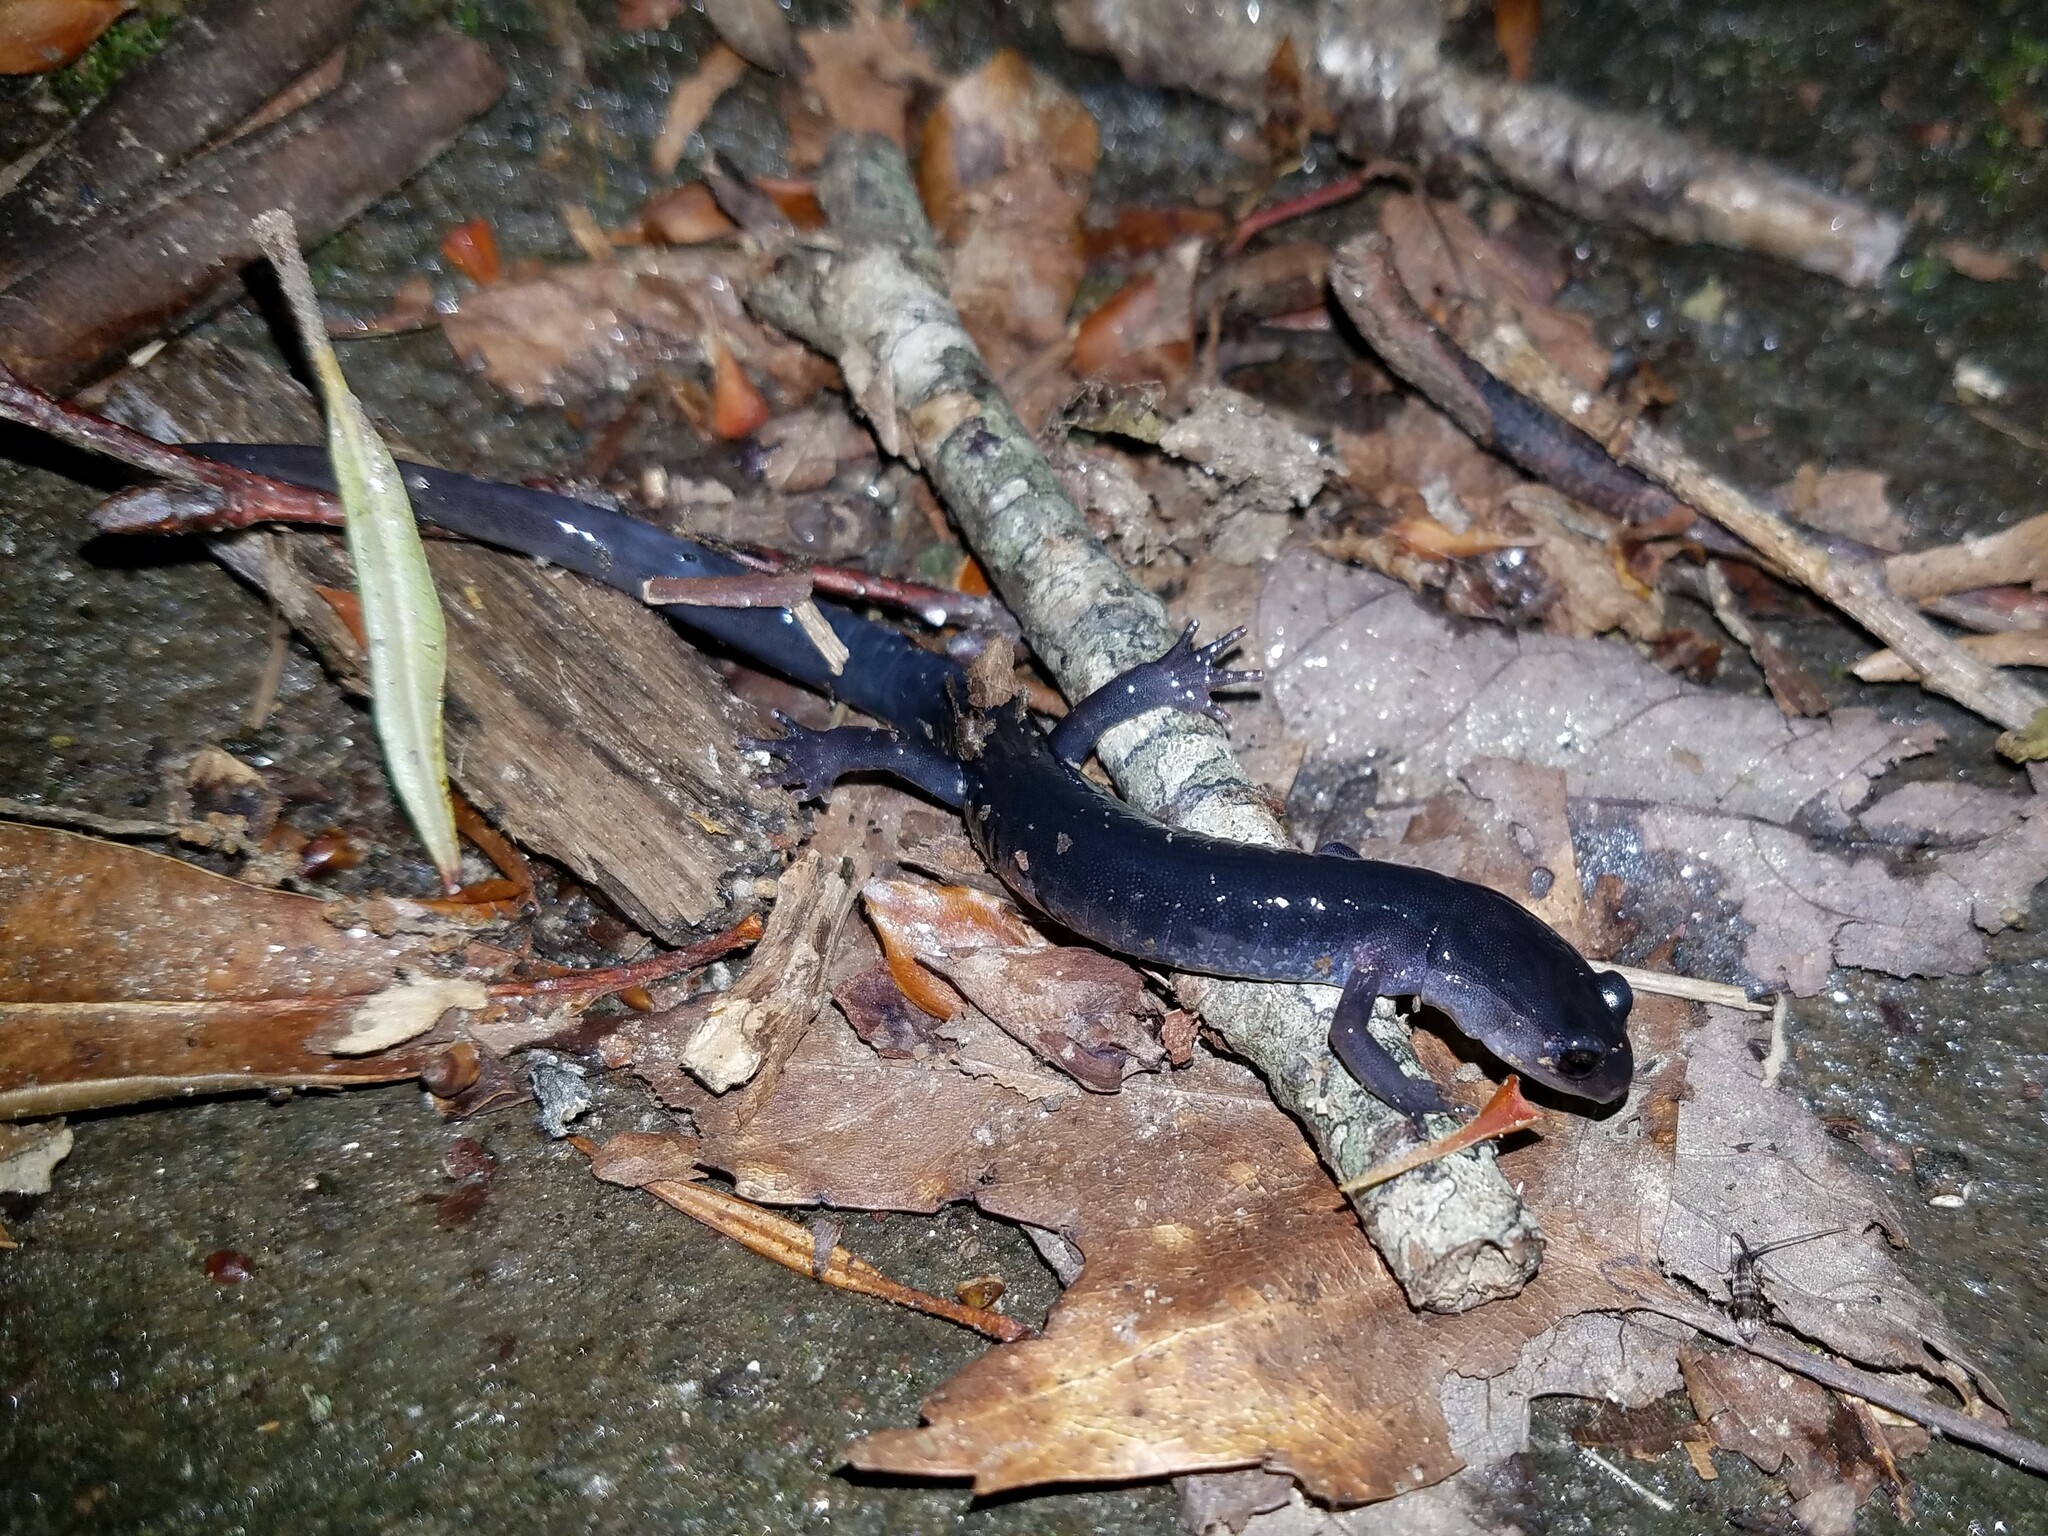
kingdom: Animalia
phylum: Chordata
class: Amphibia
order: Caudata
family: Plethodontidae
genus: Plethodon
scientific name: Plethodon chattahoochee
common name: Chattahoochee slimy salamander
